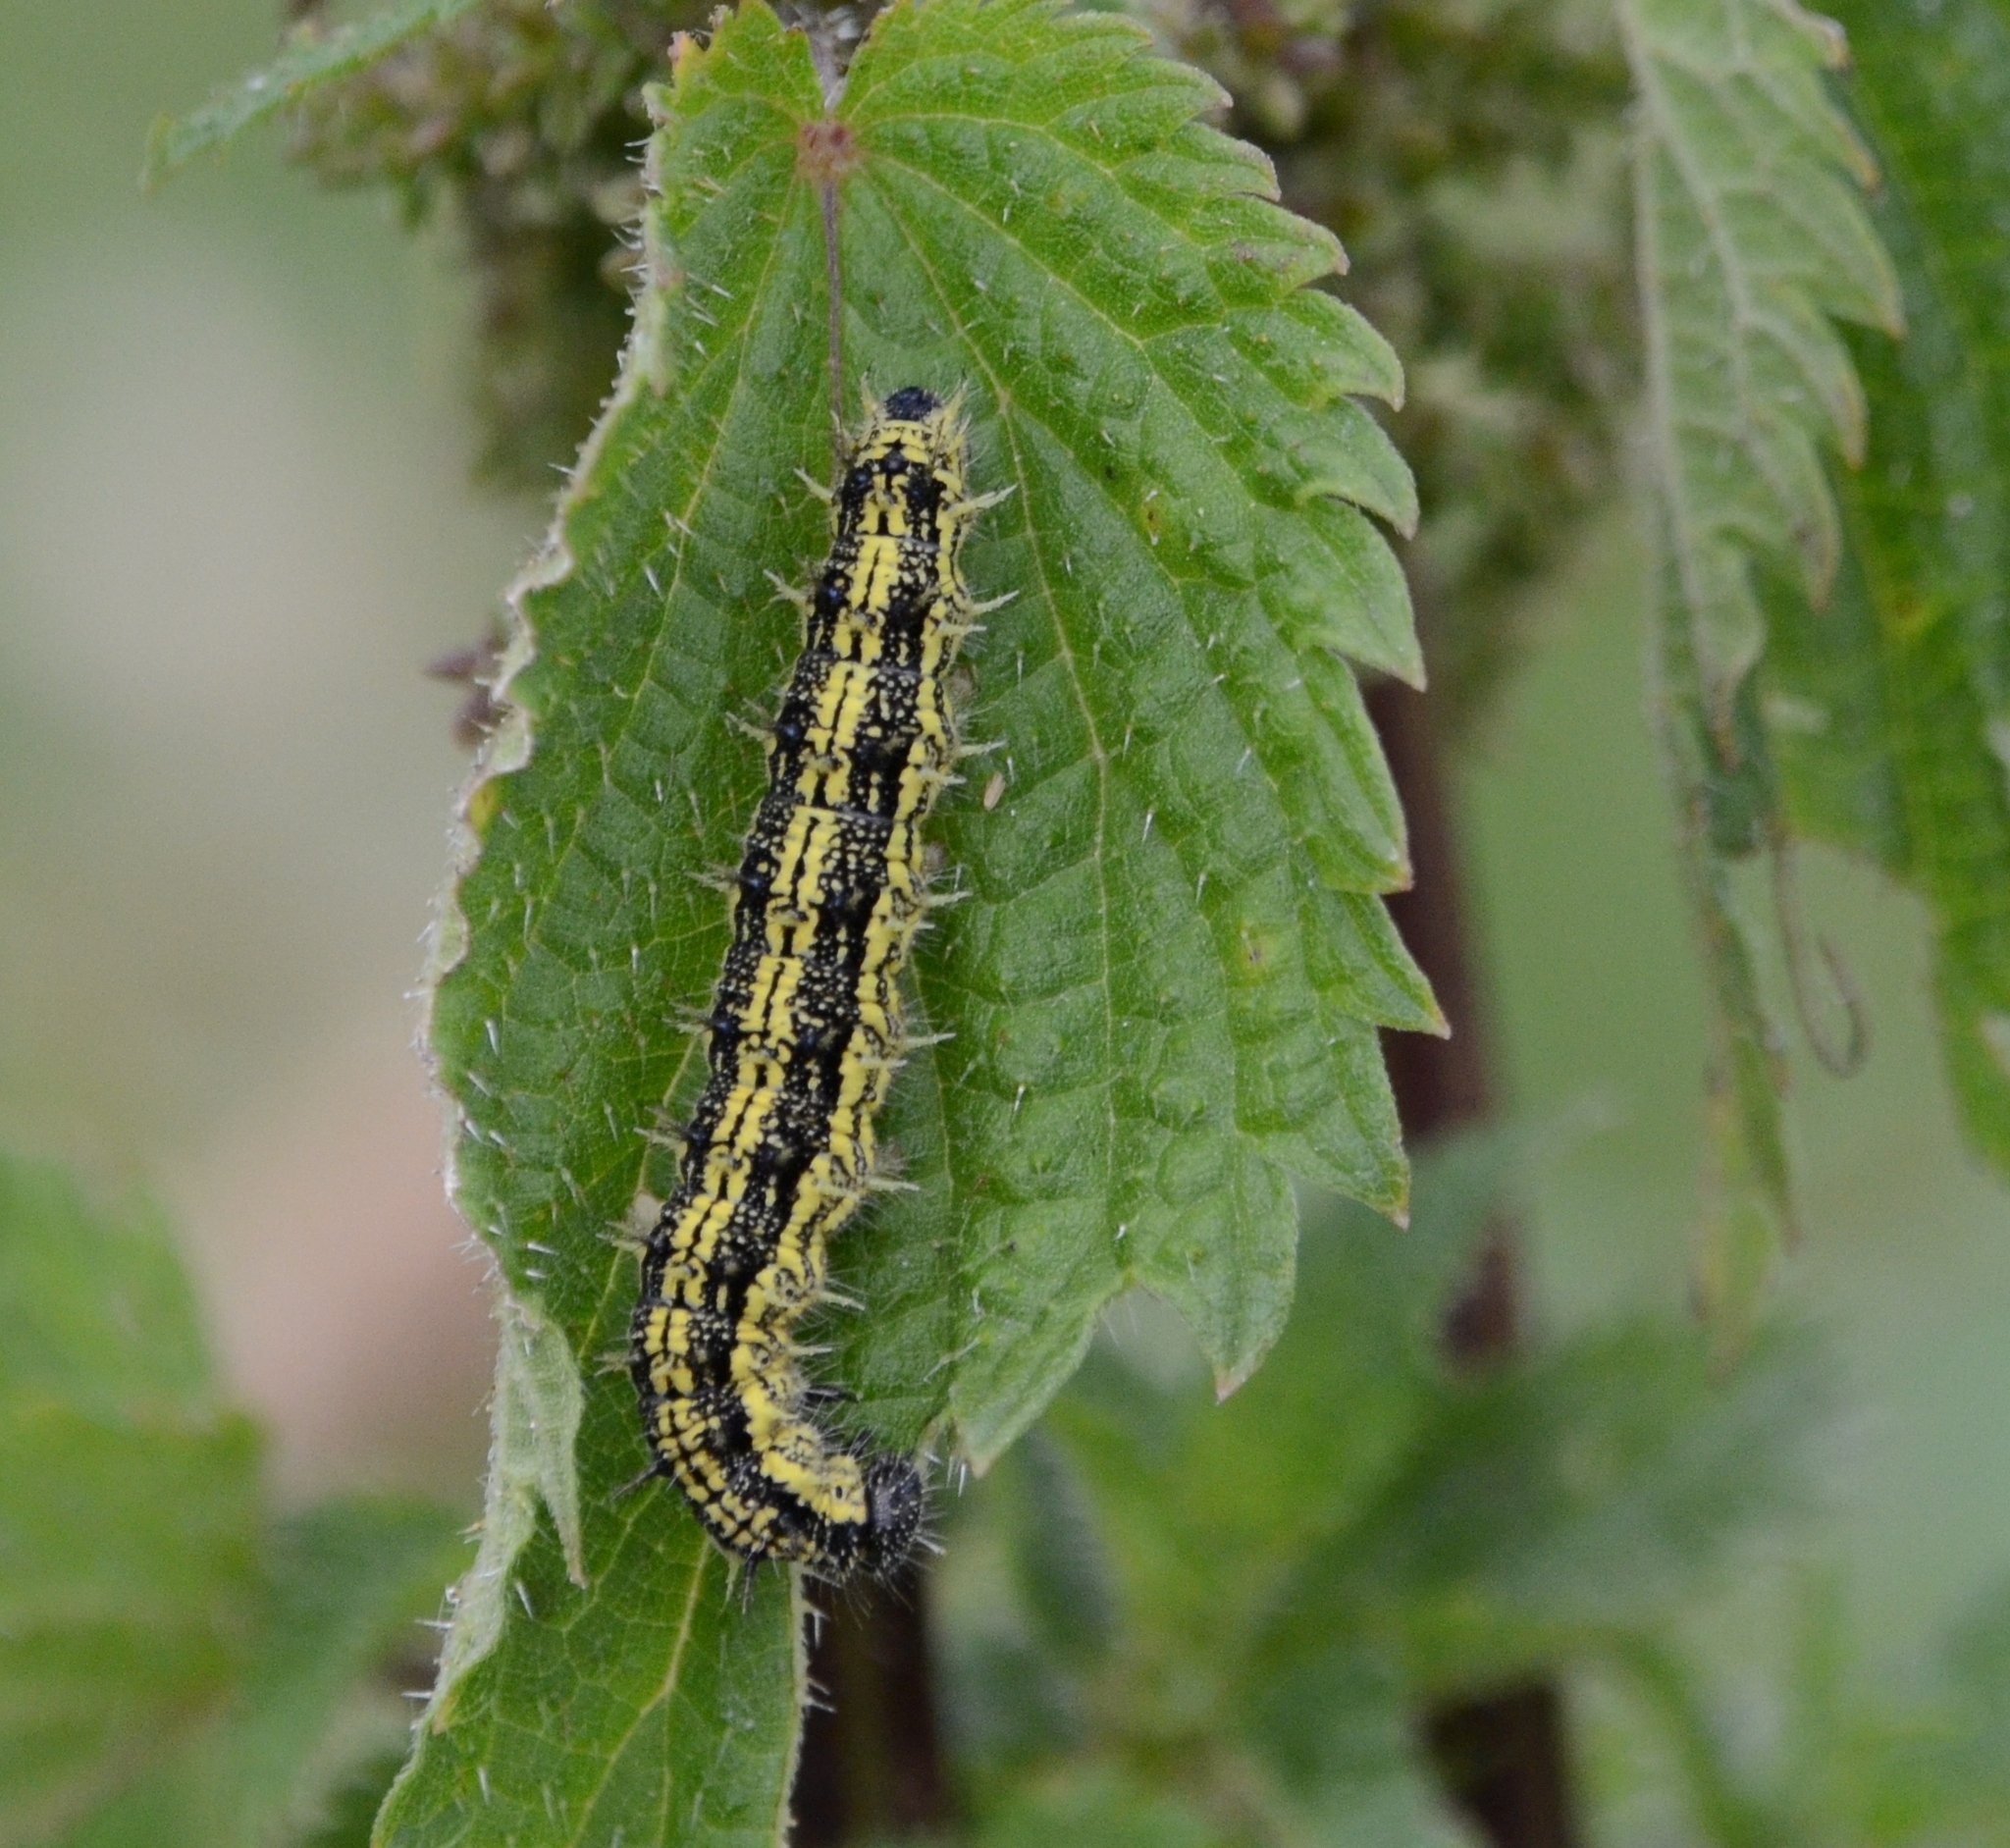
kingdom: Animalia
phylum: Arthropoda
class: Insecta
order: Lepidoptera
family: Nymphalidae
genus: Aglais
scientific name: Aglais urticae
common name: Small tortoiseshell
